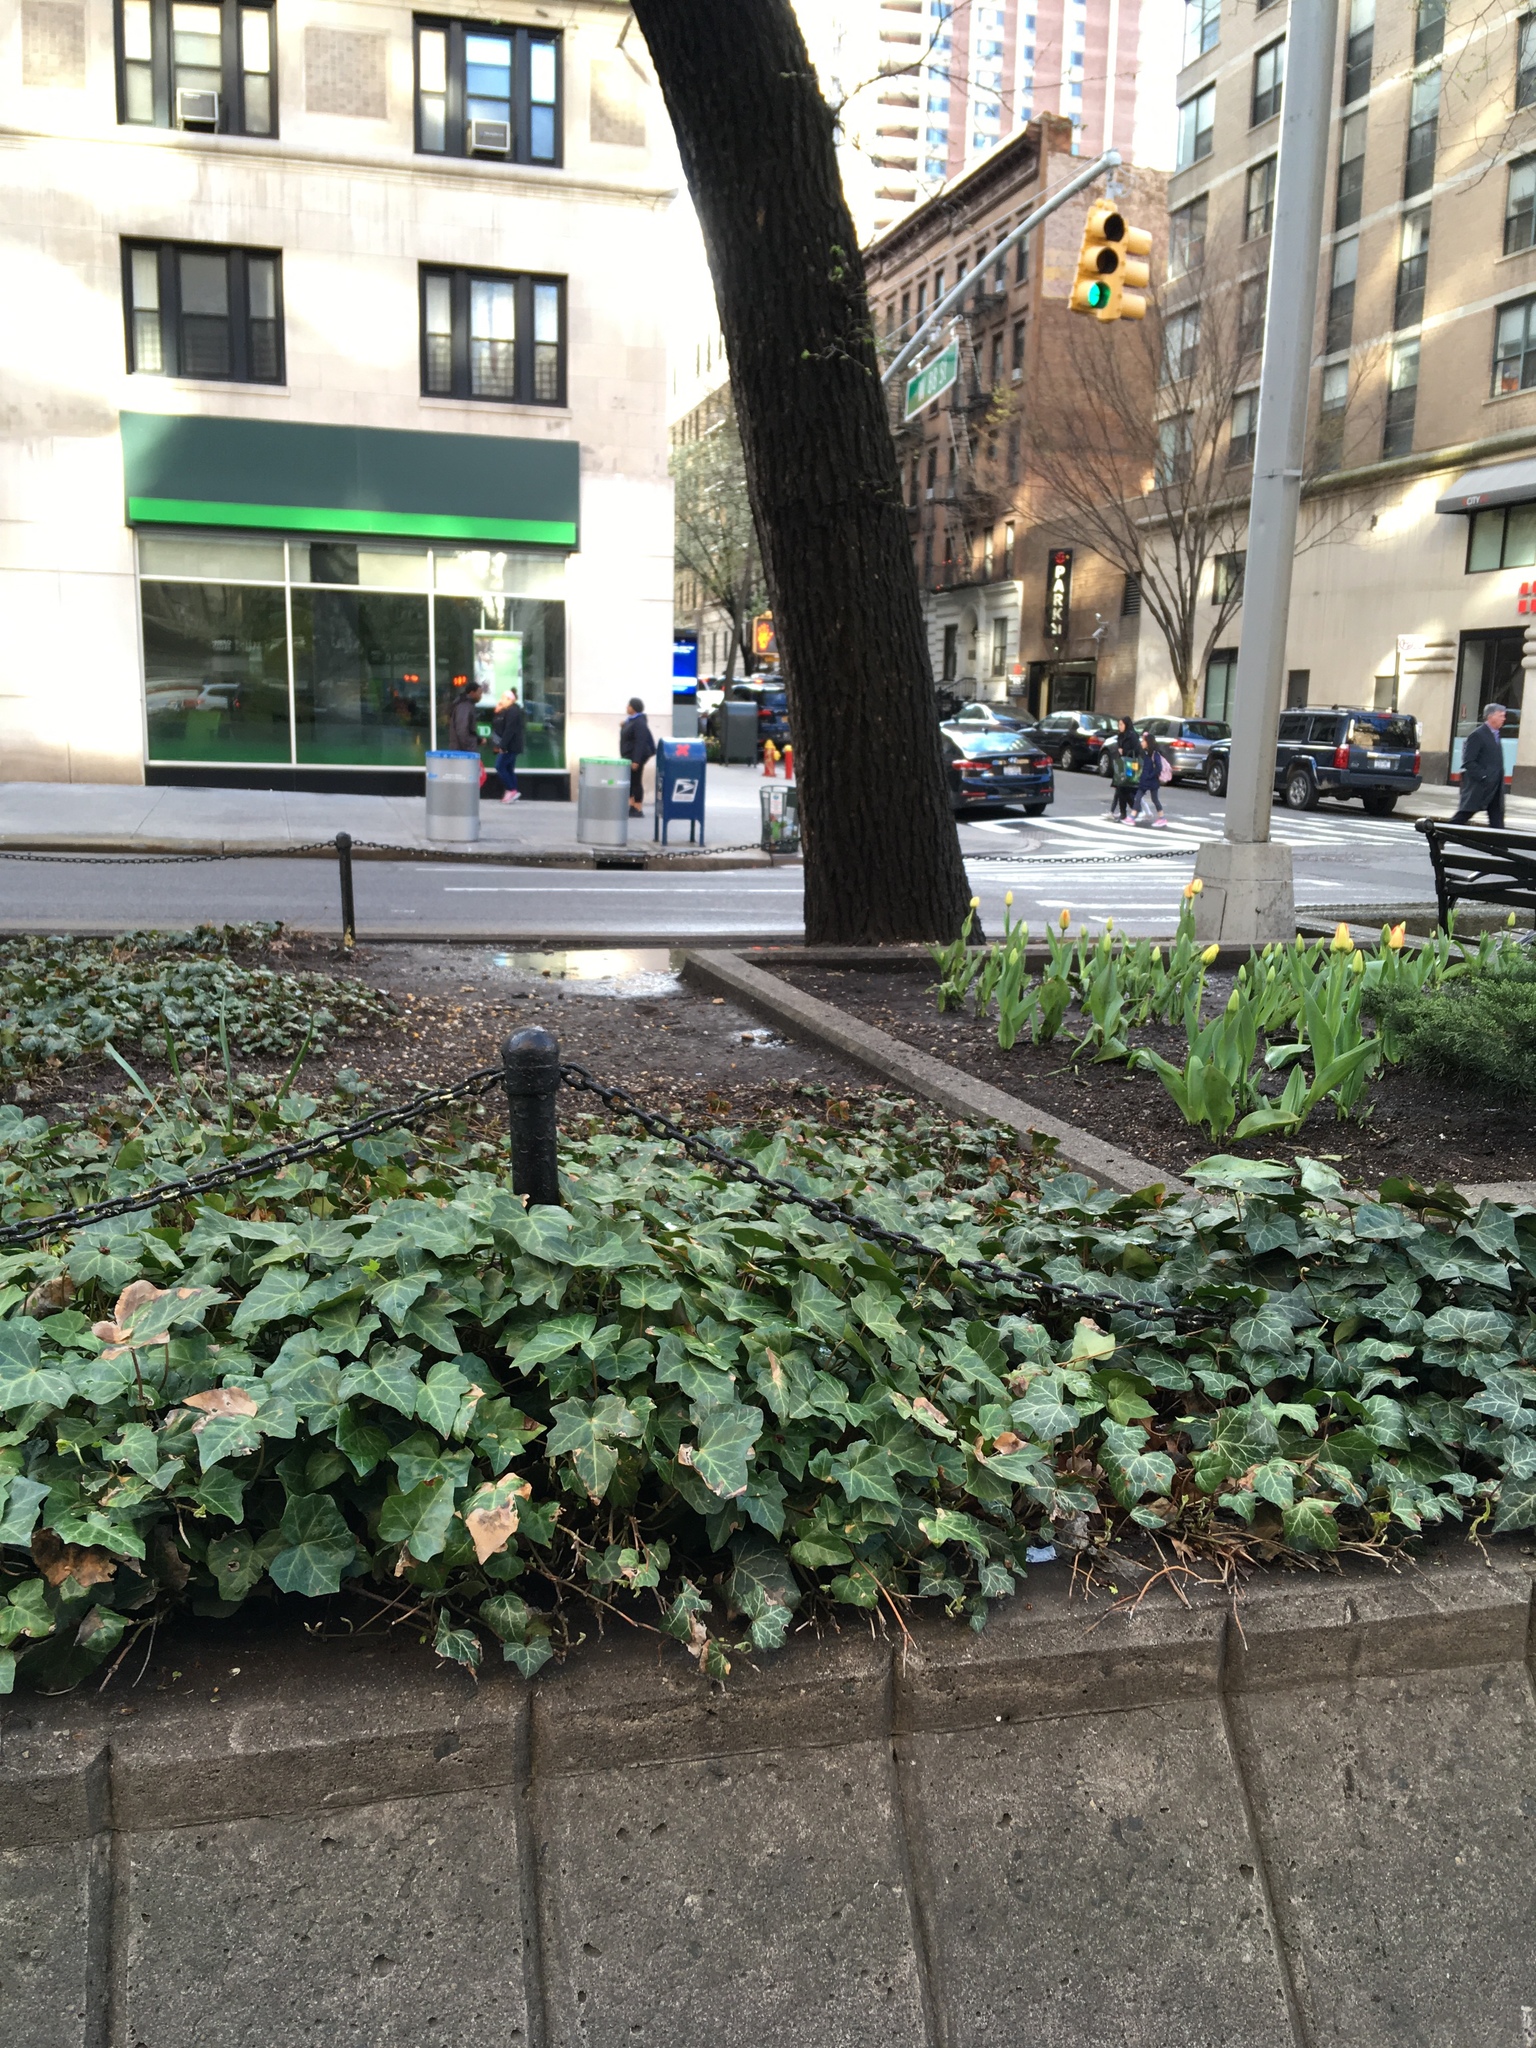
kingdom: Plantae
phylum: Tracheophyta
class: Magnoliopsida
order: Apiales
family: Araliaceae
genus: Hedera
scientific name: Hedera helix
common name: Ivy
